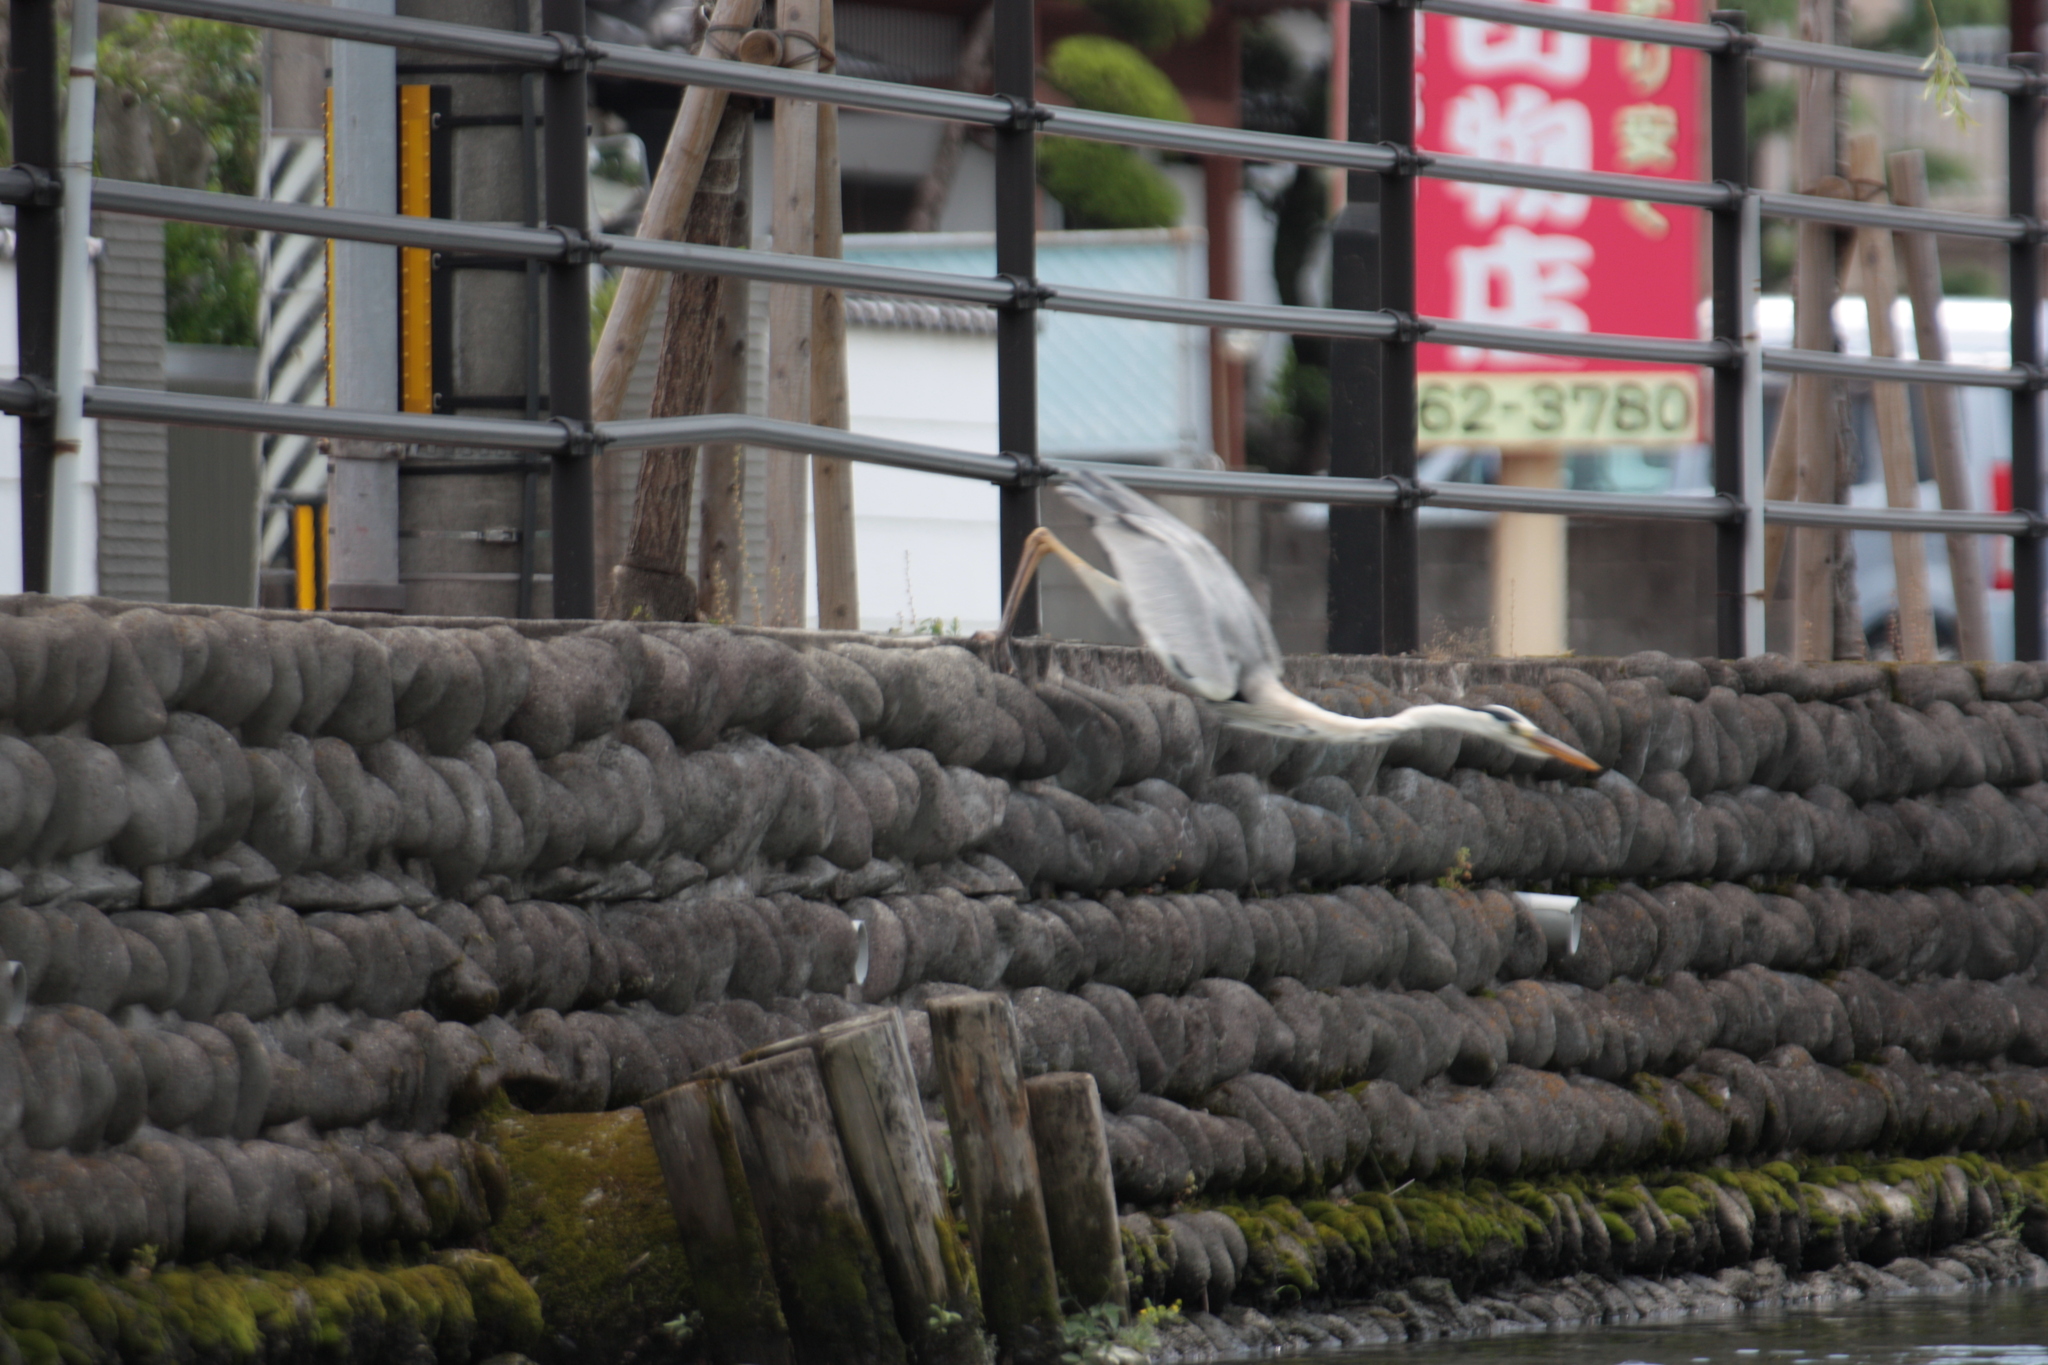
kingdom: Animalia
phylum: Chordata
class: Aves
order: Pelecaniformes
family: Ardeidae
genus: Ardea
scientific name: Ardea cinerea
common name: Grey heron
